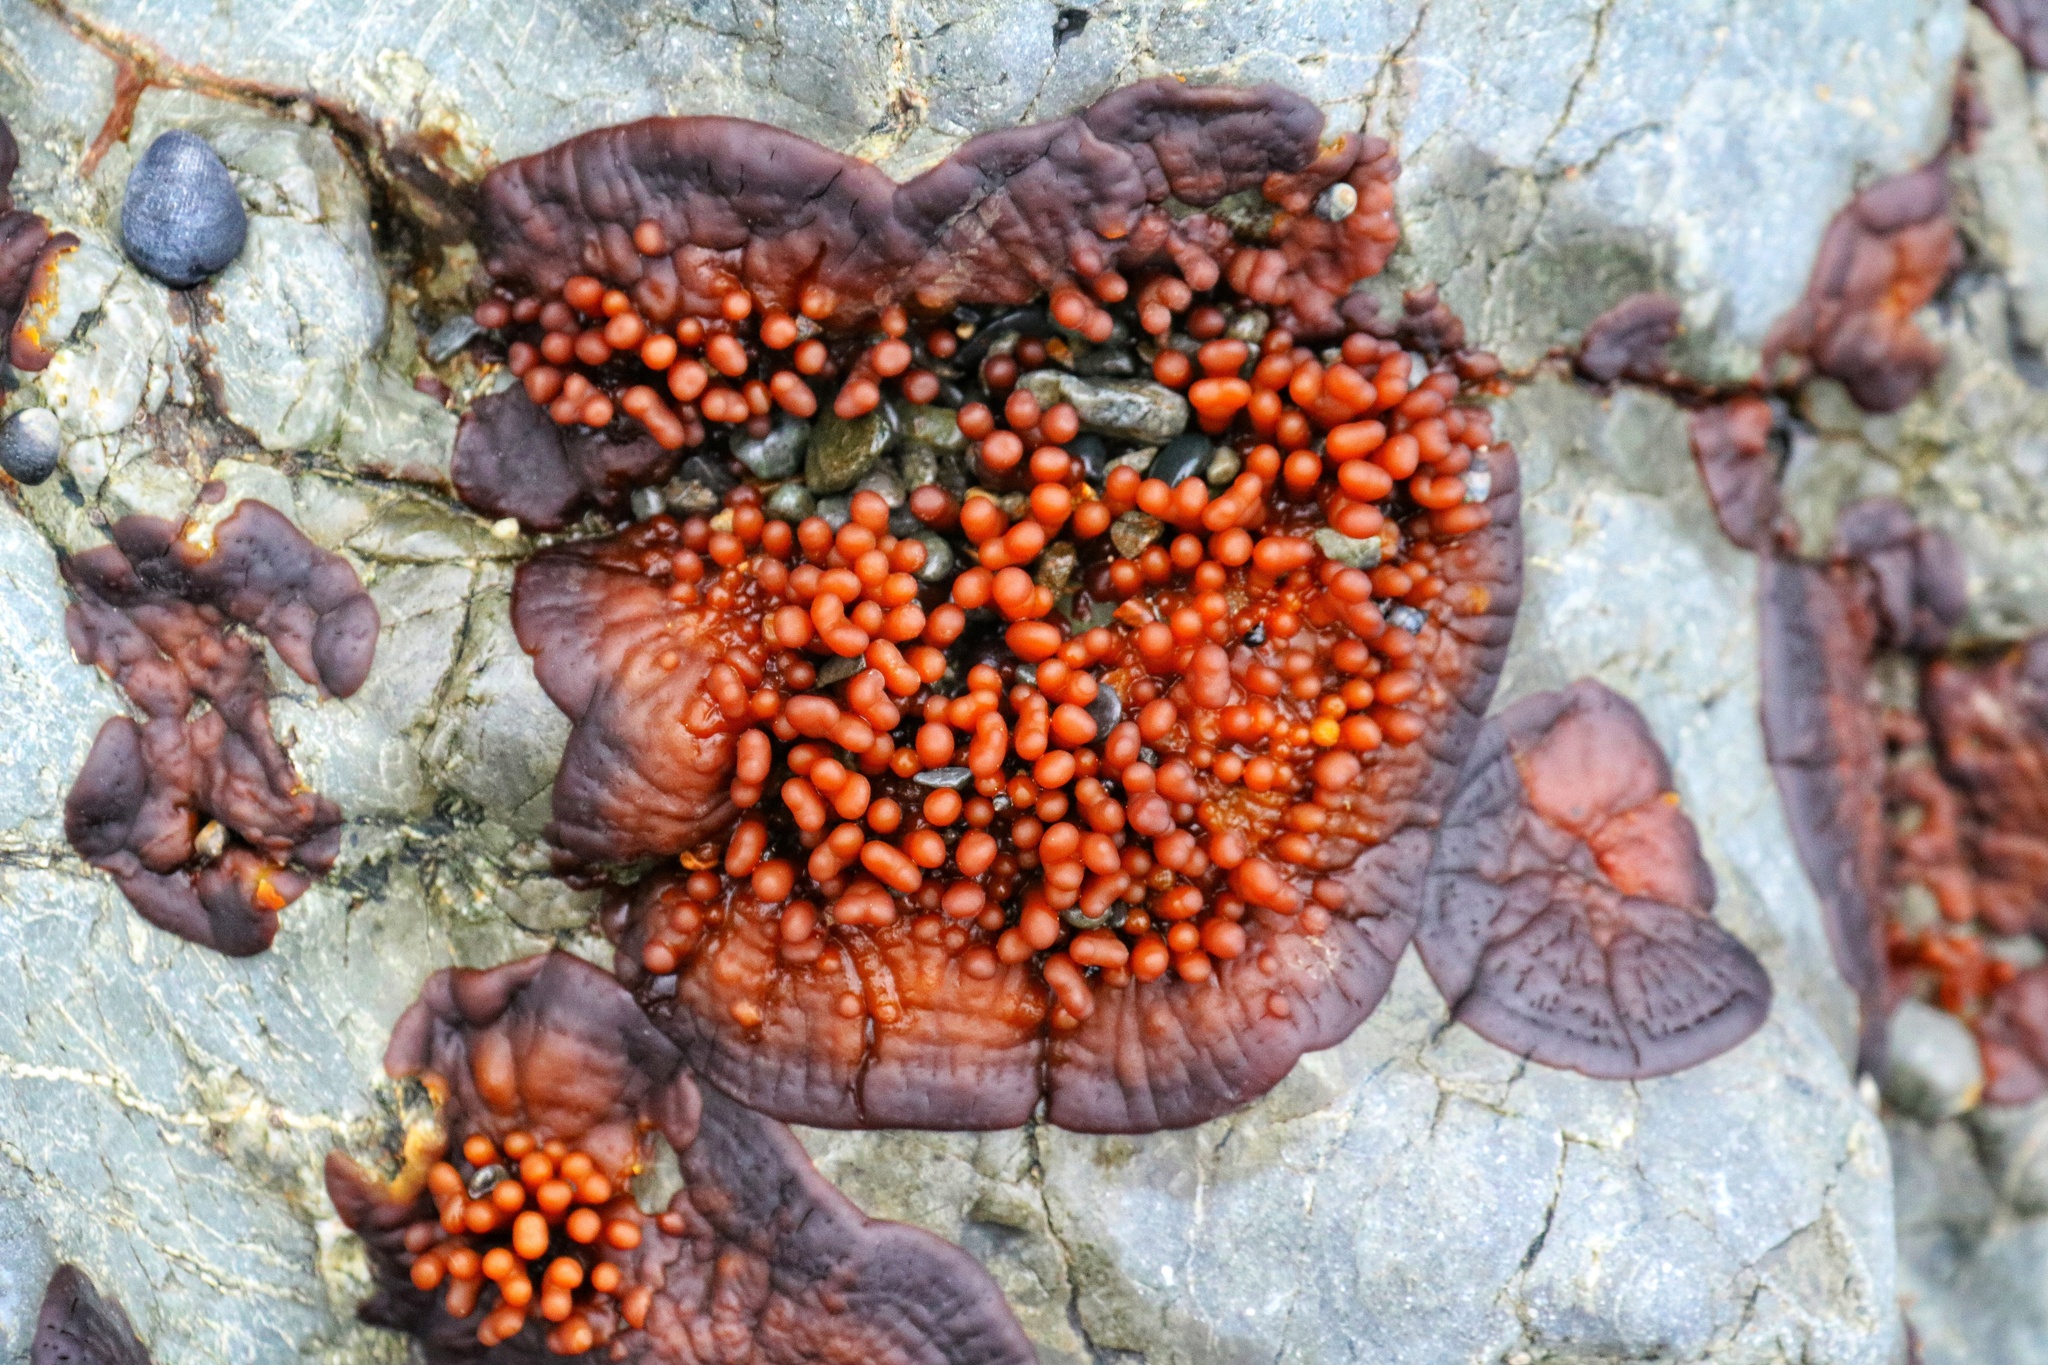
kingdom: Plantae
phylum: Rhodophyta
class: Florideophyceae
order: Hildenbrandiales
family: Hildenbrandiaceae
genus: Apophlaea
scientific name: Apophlaea sinclairii
